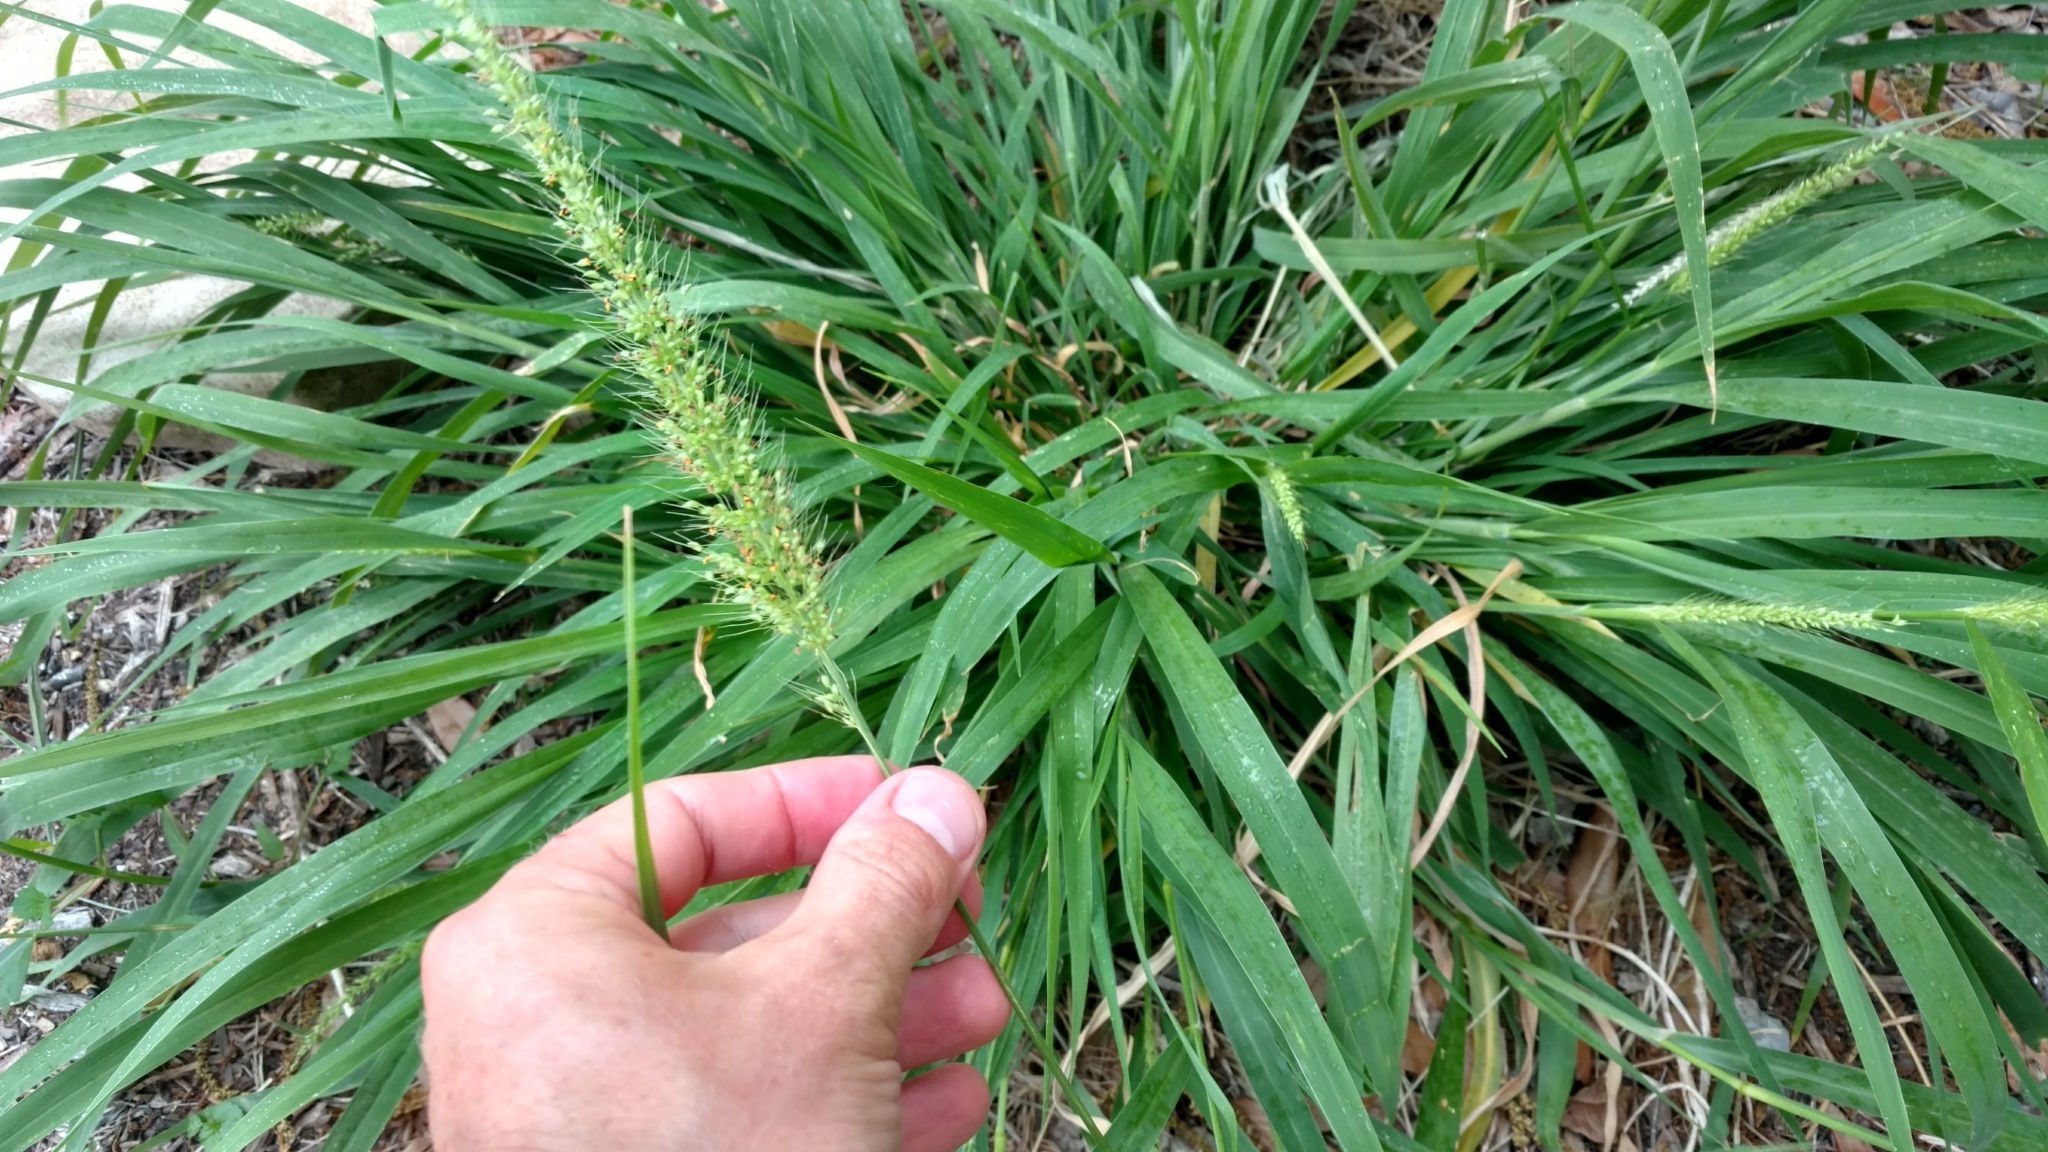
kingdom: Plantae
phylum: Tracheophyta
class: Liliopsida
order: Poales
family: Poaceae
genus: Setaria
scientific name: Setaria scheelei
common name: Southwestern bristle grass
